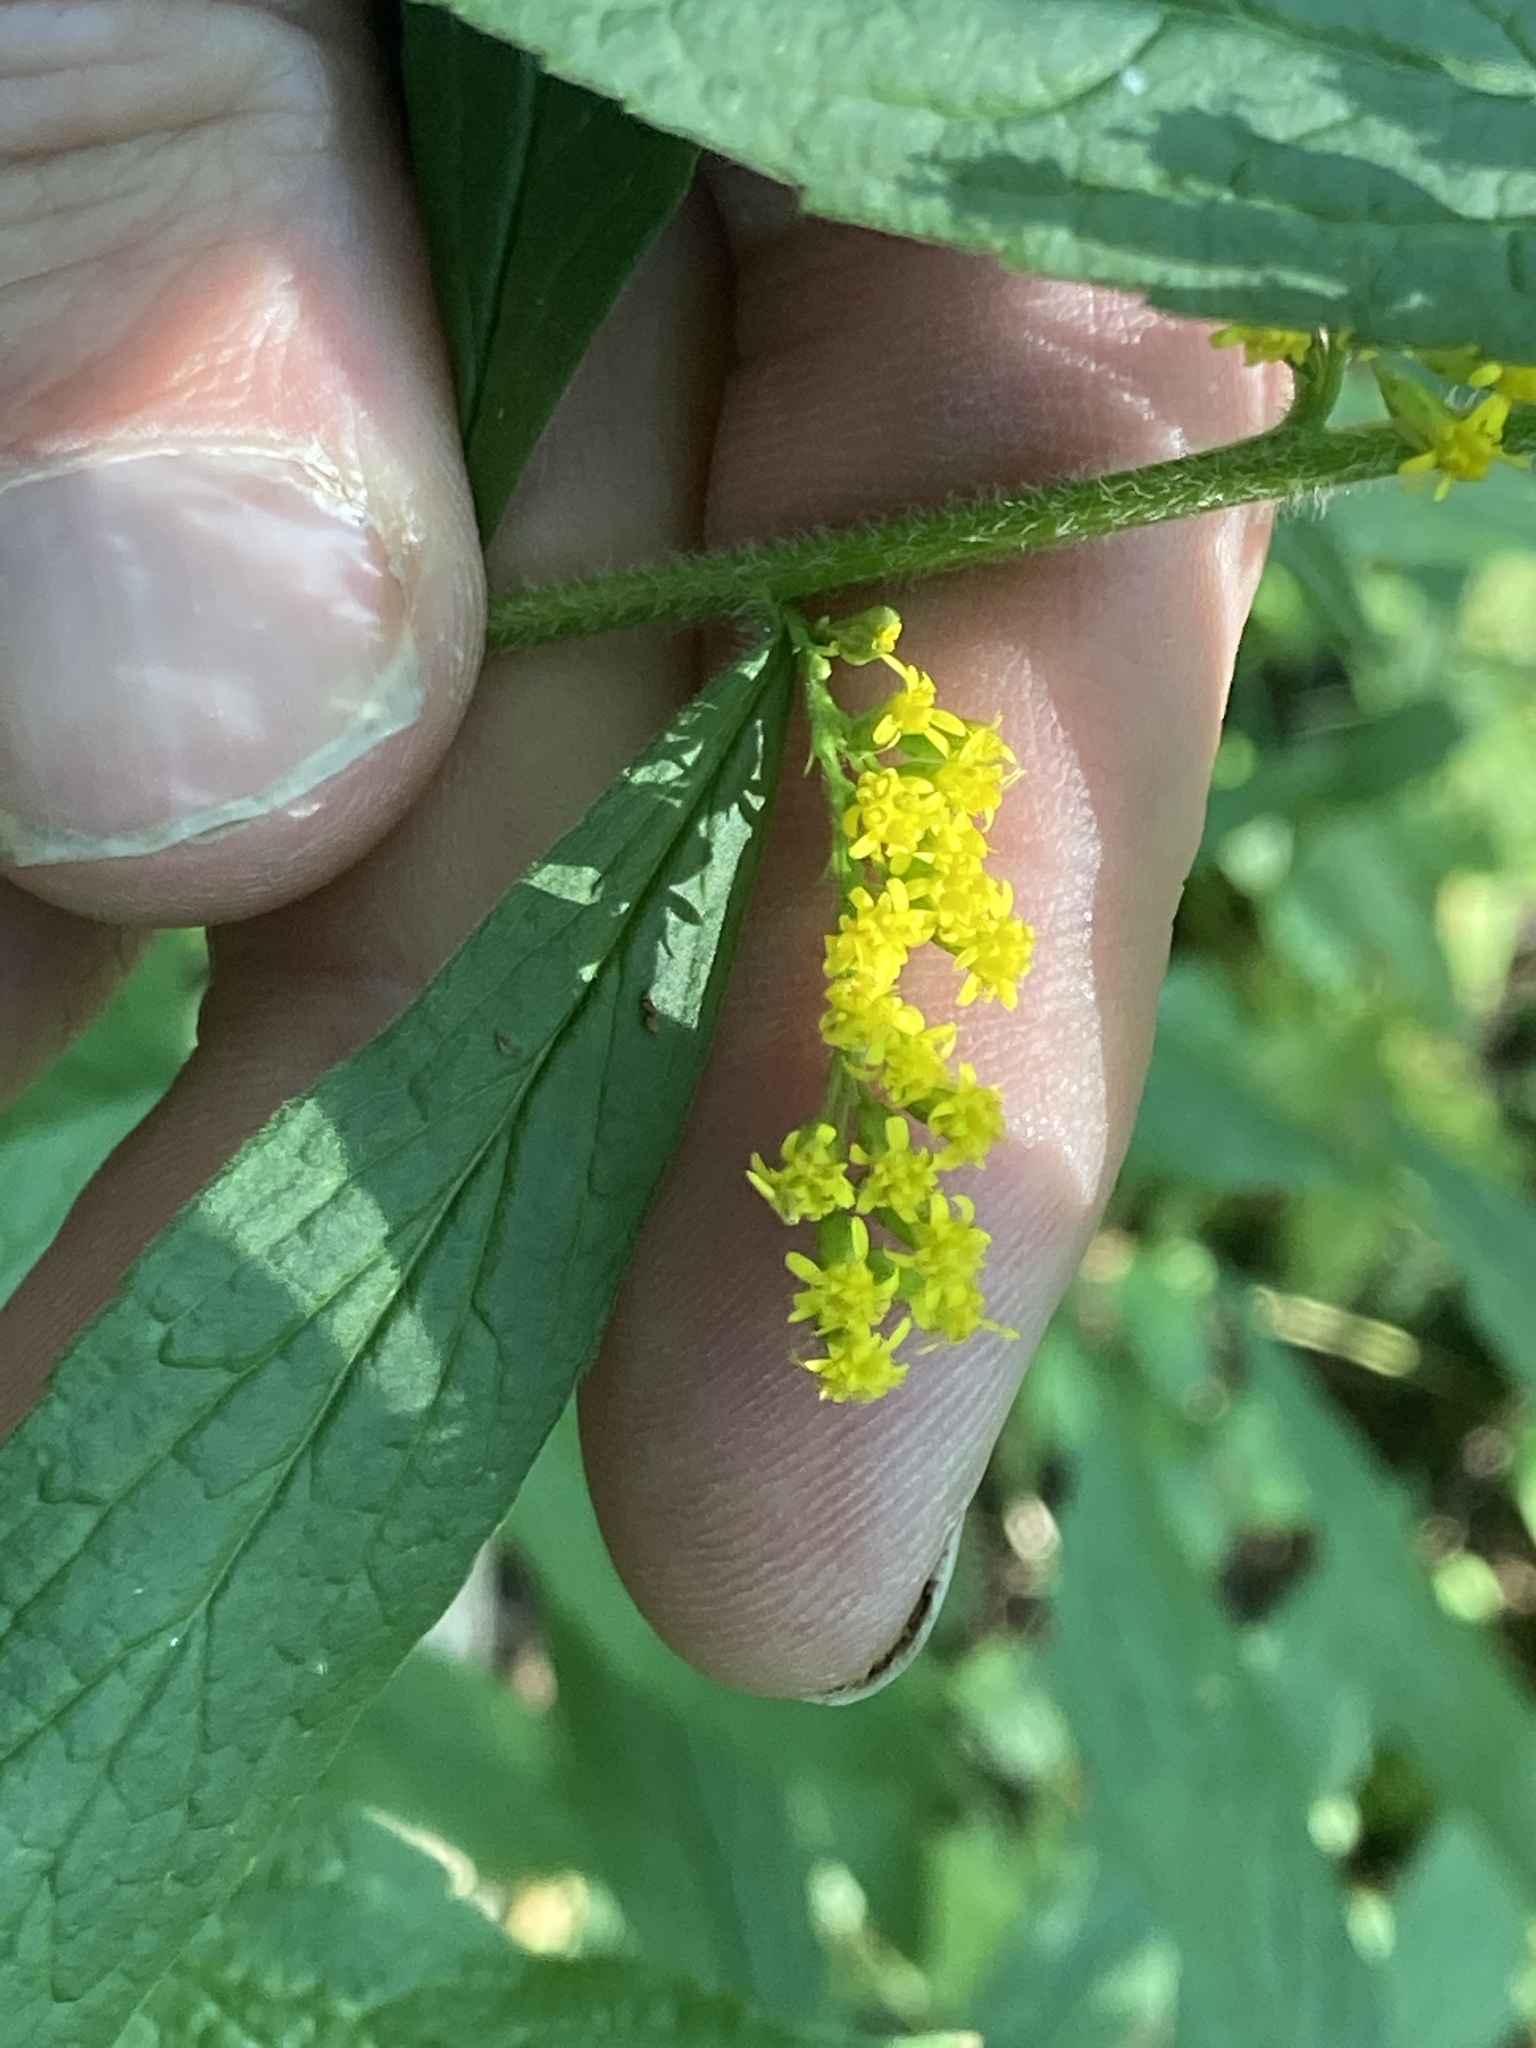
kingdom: Plantae
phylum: Tracheophyta
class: Magnoliopsida
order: Asterales
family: Asteraceae
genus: Solidago
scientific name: Solidago rugosa
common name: Rough-stemmed goldenrod
